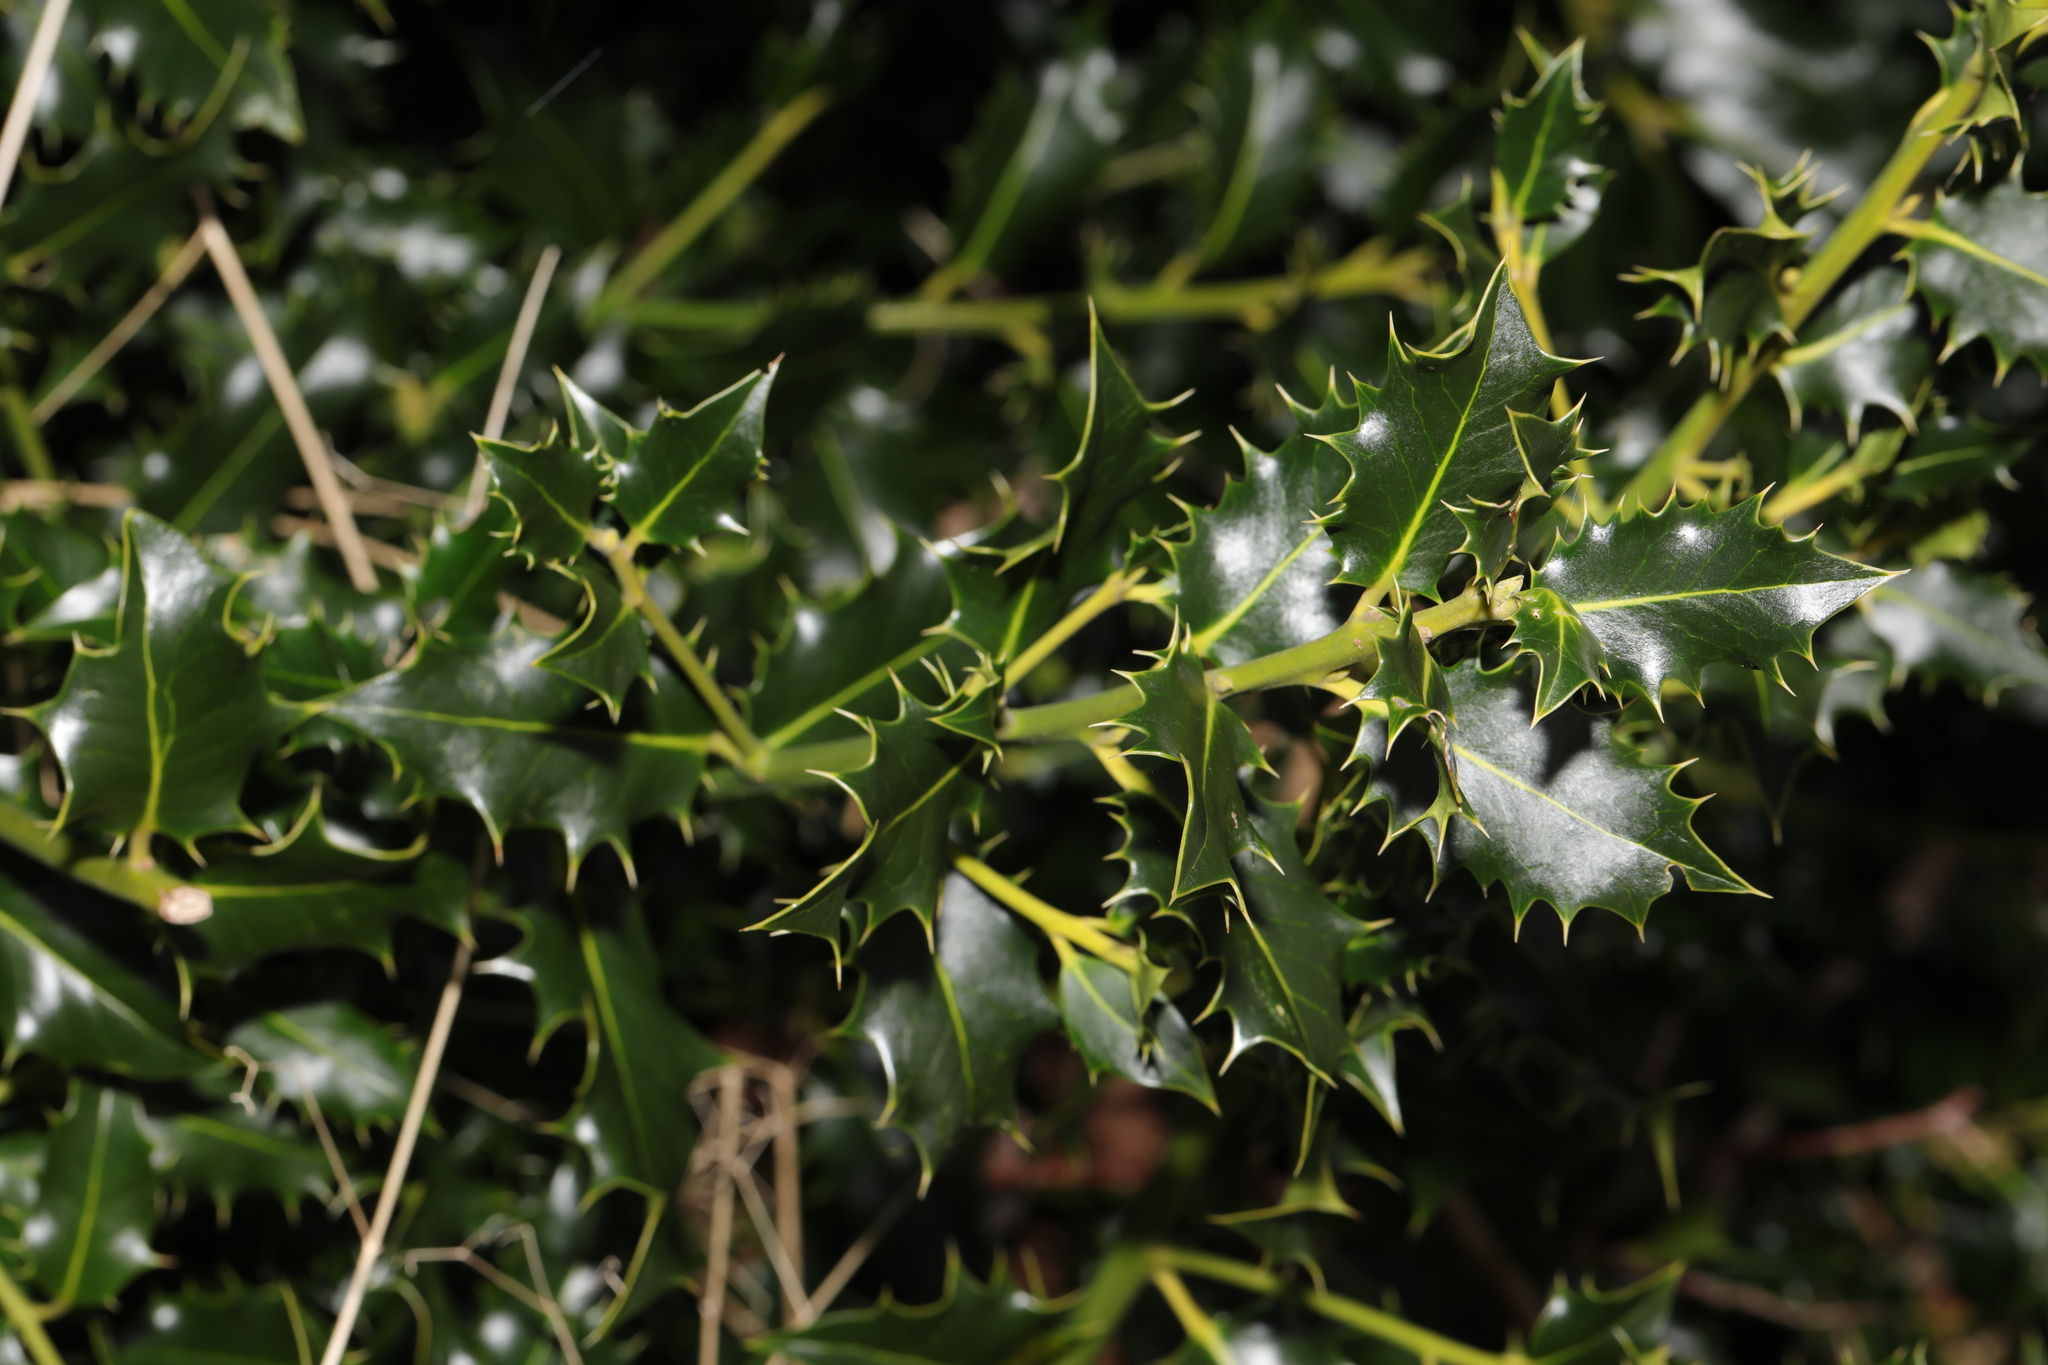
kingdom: Plantae
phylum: Tracheophyta
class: Magnoliopsida
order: Aquifoliales
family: Aquifoliaceae
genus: Ilex
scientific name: Ilex aquifolium
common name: English holly
